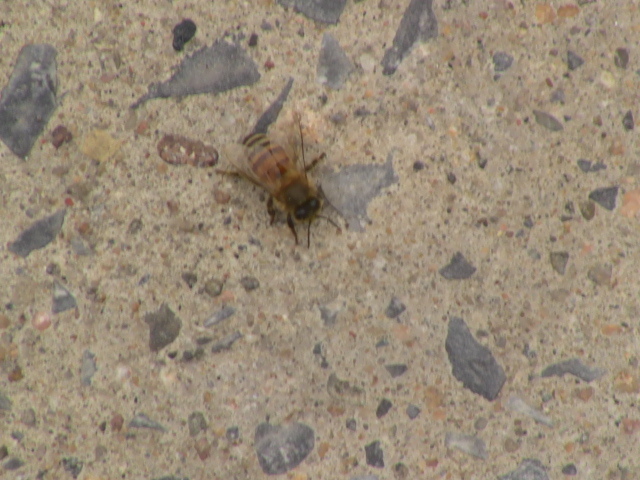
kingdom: Animalia
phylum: Arthropoda
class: Insecta
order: Hymenoptera
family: Apidae
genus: Apis
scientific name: Apis mellifera
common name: Honey bee
